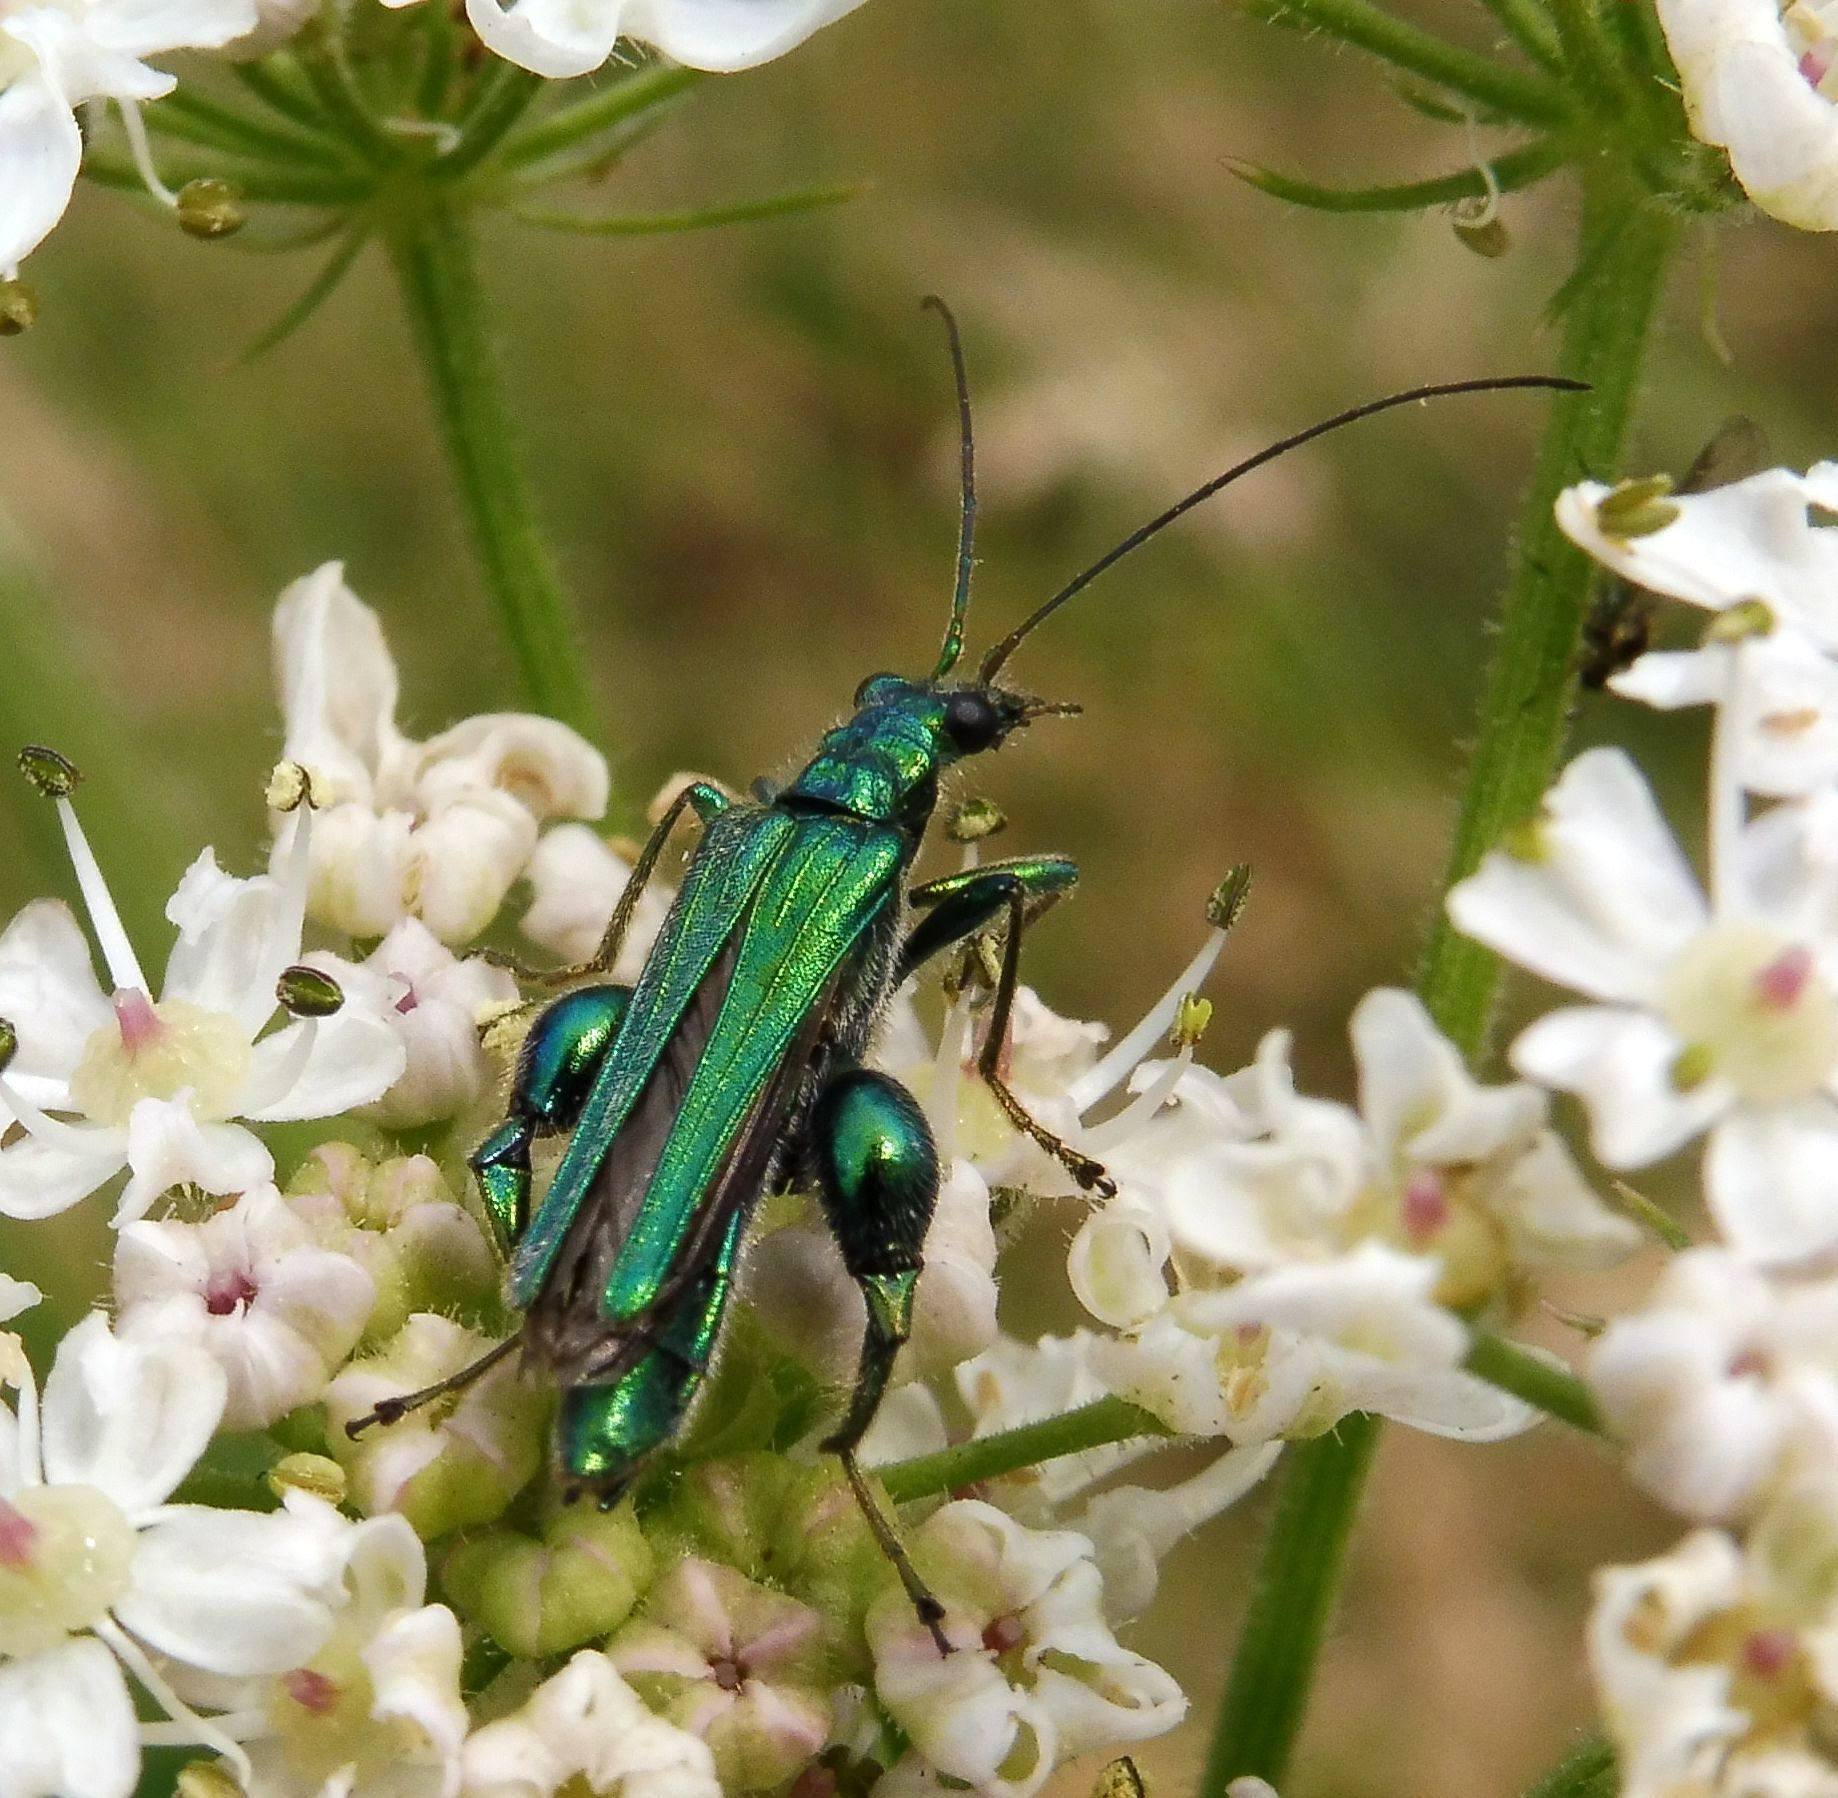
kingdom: Animalia
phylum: Arthropoda
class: Insecta
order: Coleoptera
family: Oedemeridae
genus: Oedemera
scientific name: Oedemera nobilis
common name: Swollen-thighed beetle
